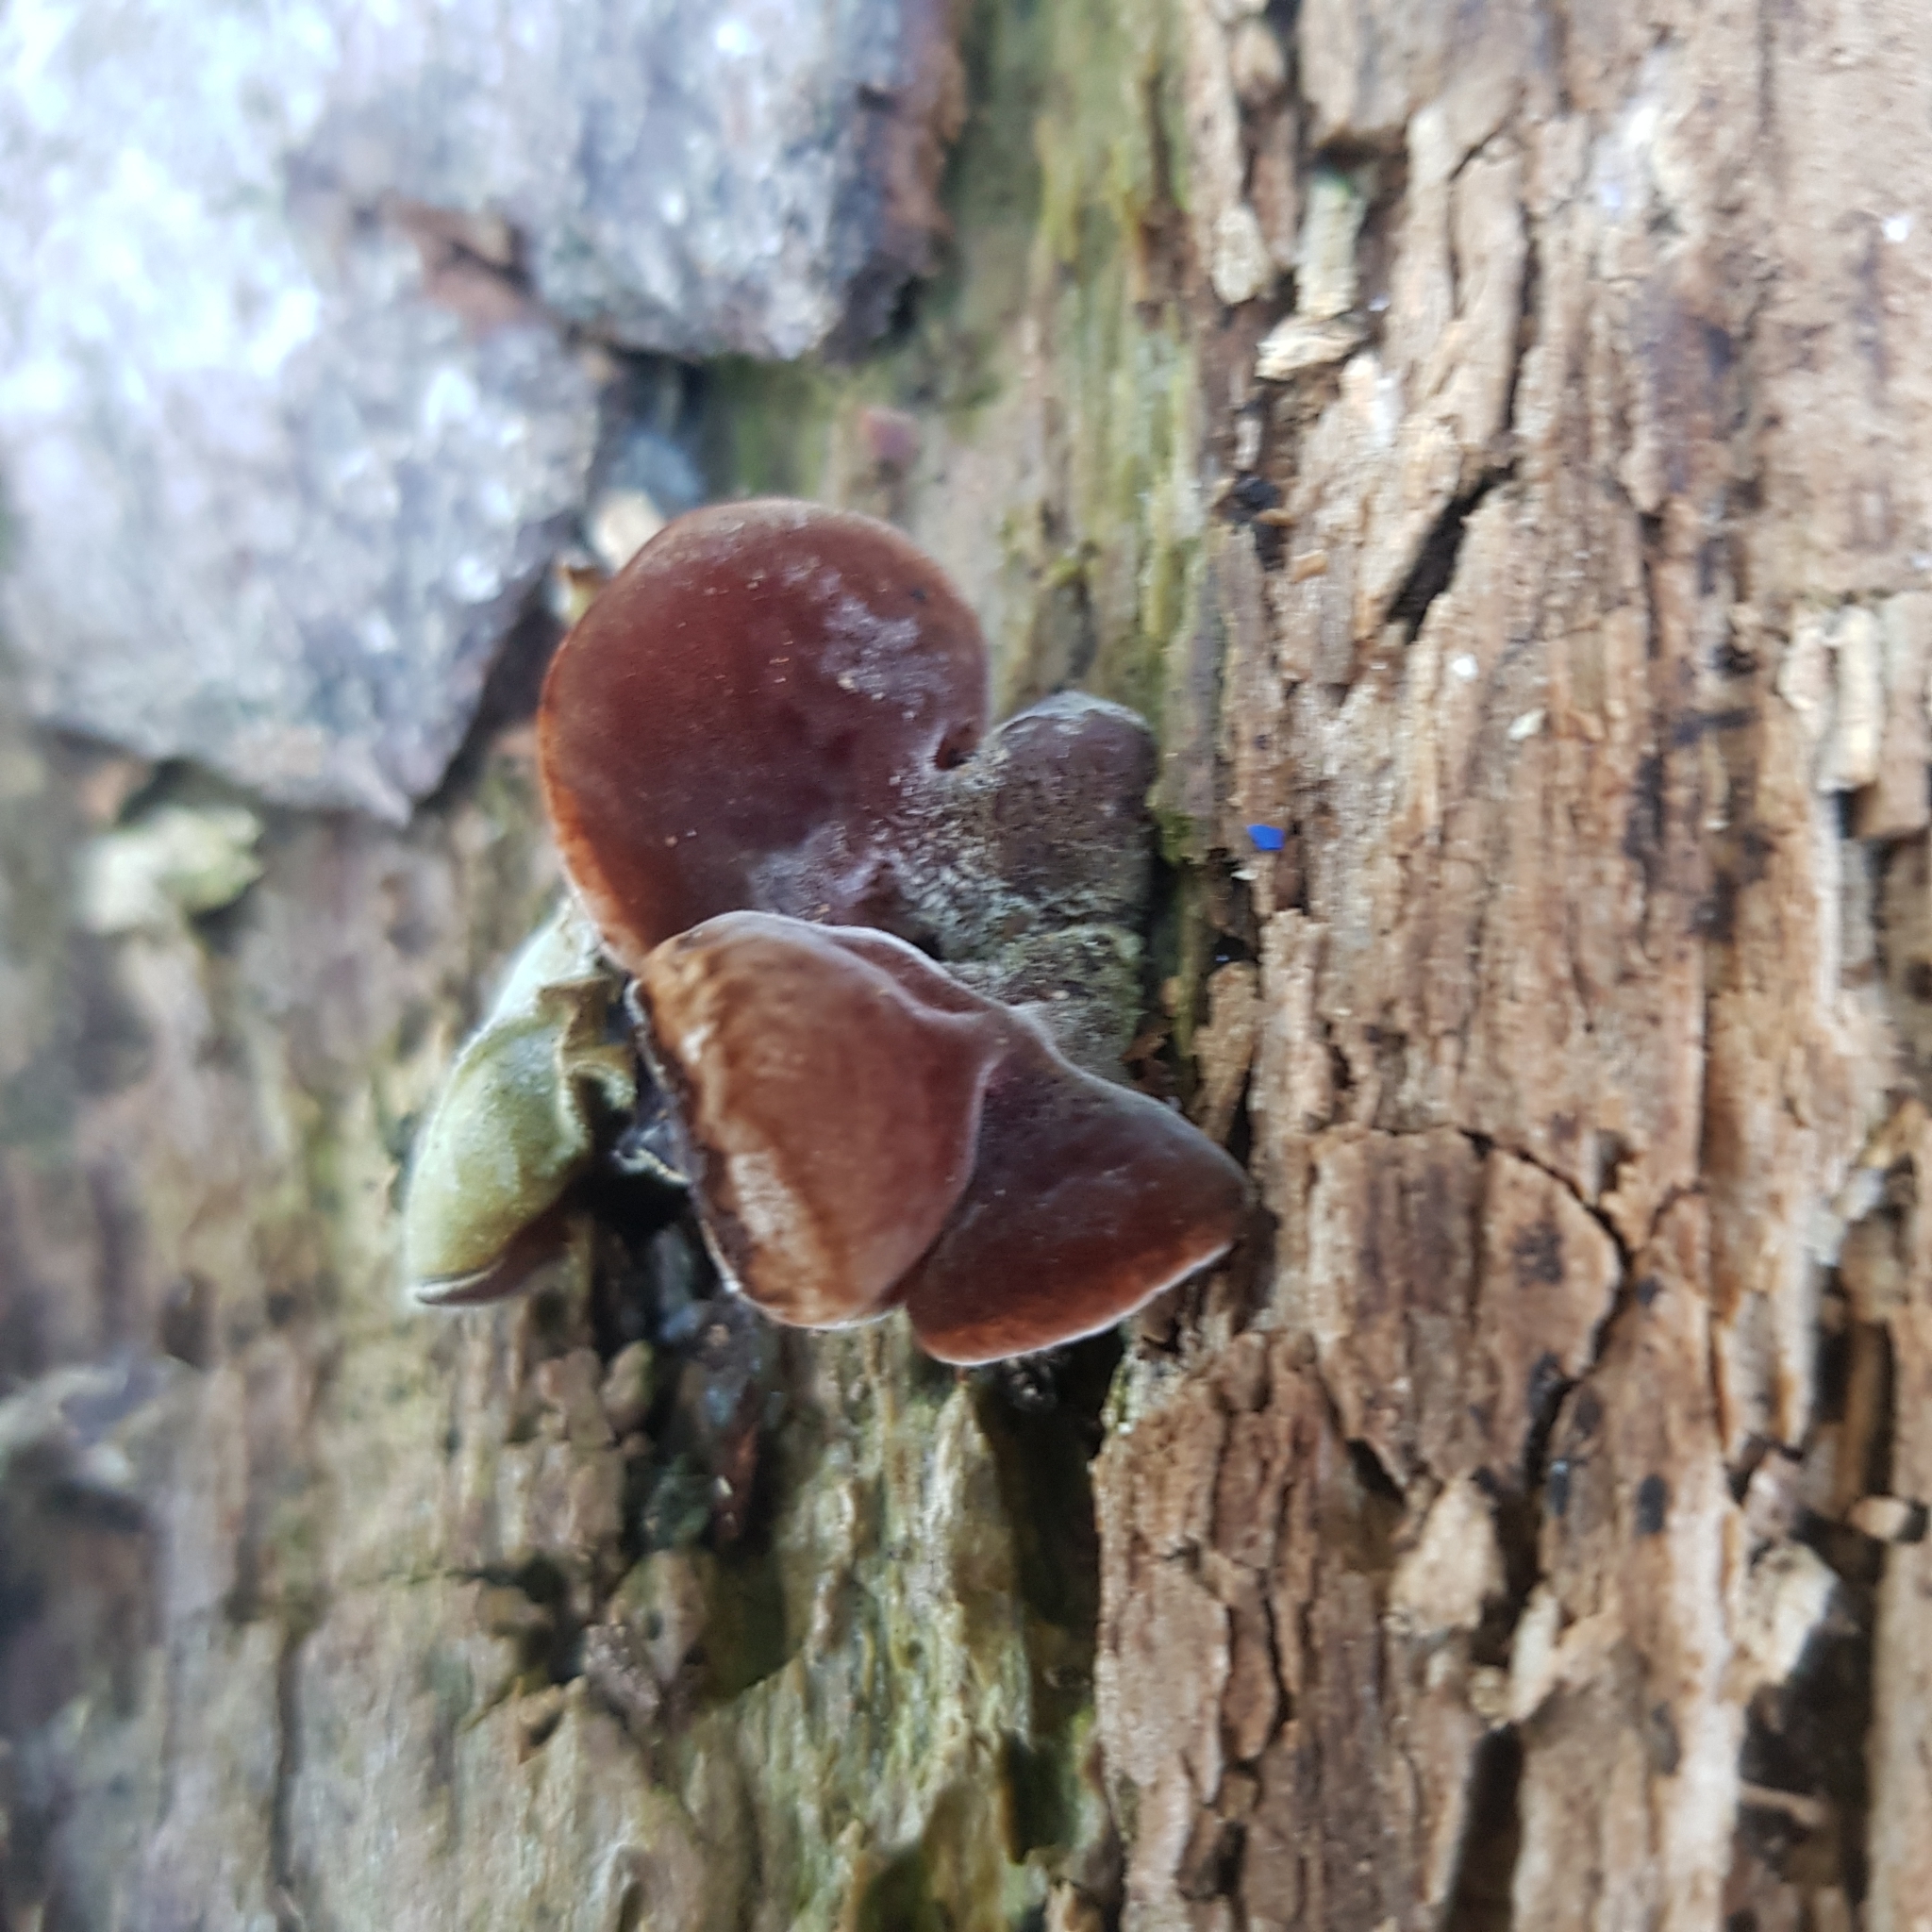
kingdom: Fungi
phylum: Basidiomycota
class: Agaricomycetes
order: Auriculariales
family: Auriculariaceae
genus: Auricularia
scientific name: Auricularia cornea
